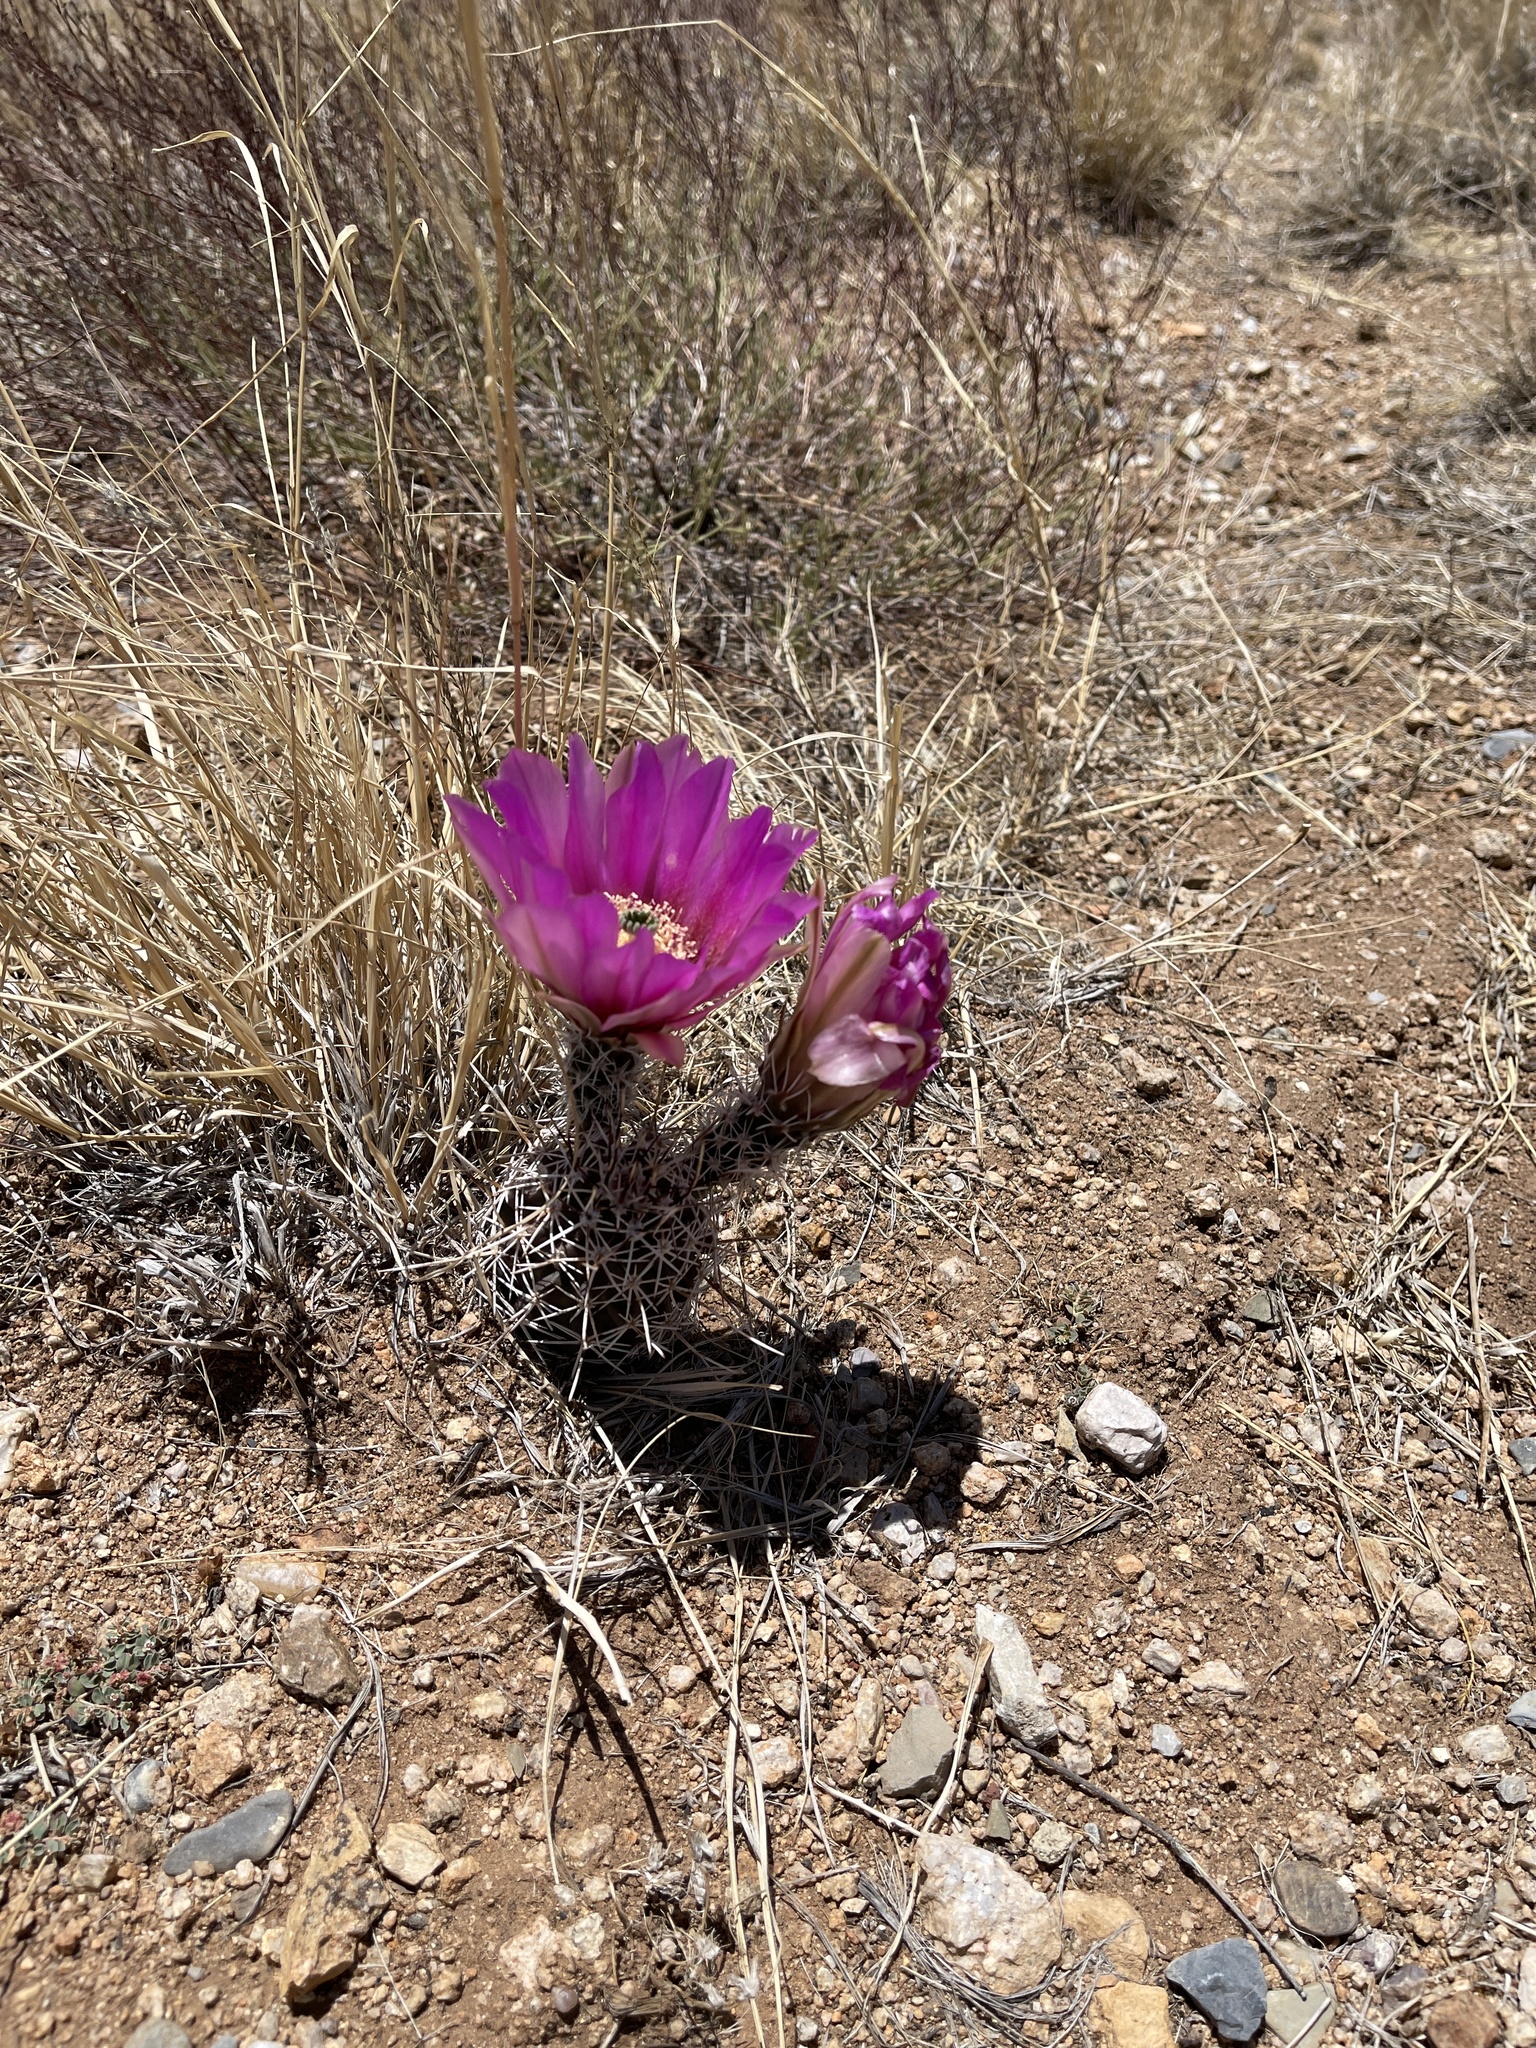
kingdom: Plantae
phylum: Tracheophyta
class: Magnoliopsida
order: Caryophyllales
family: Cactaceae
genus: Echinocereus
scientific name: Echinocereus fendleri
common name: Fendler's hedgehog cactus
